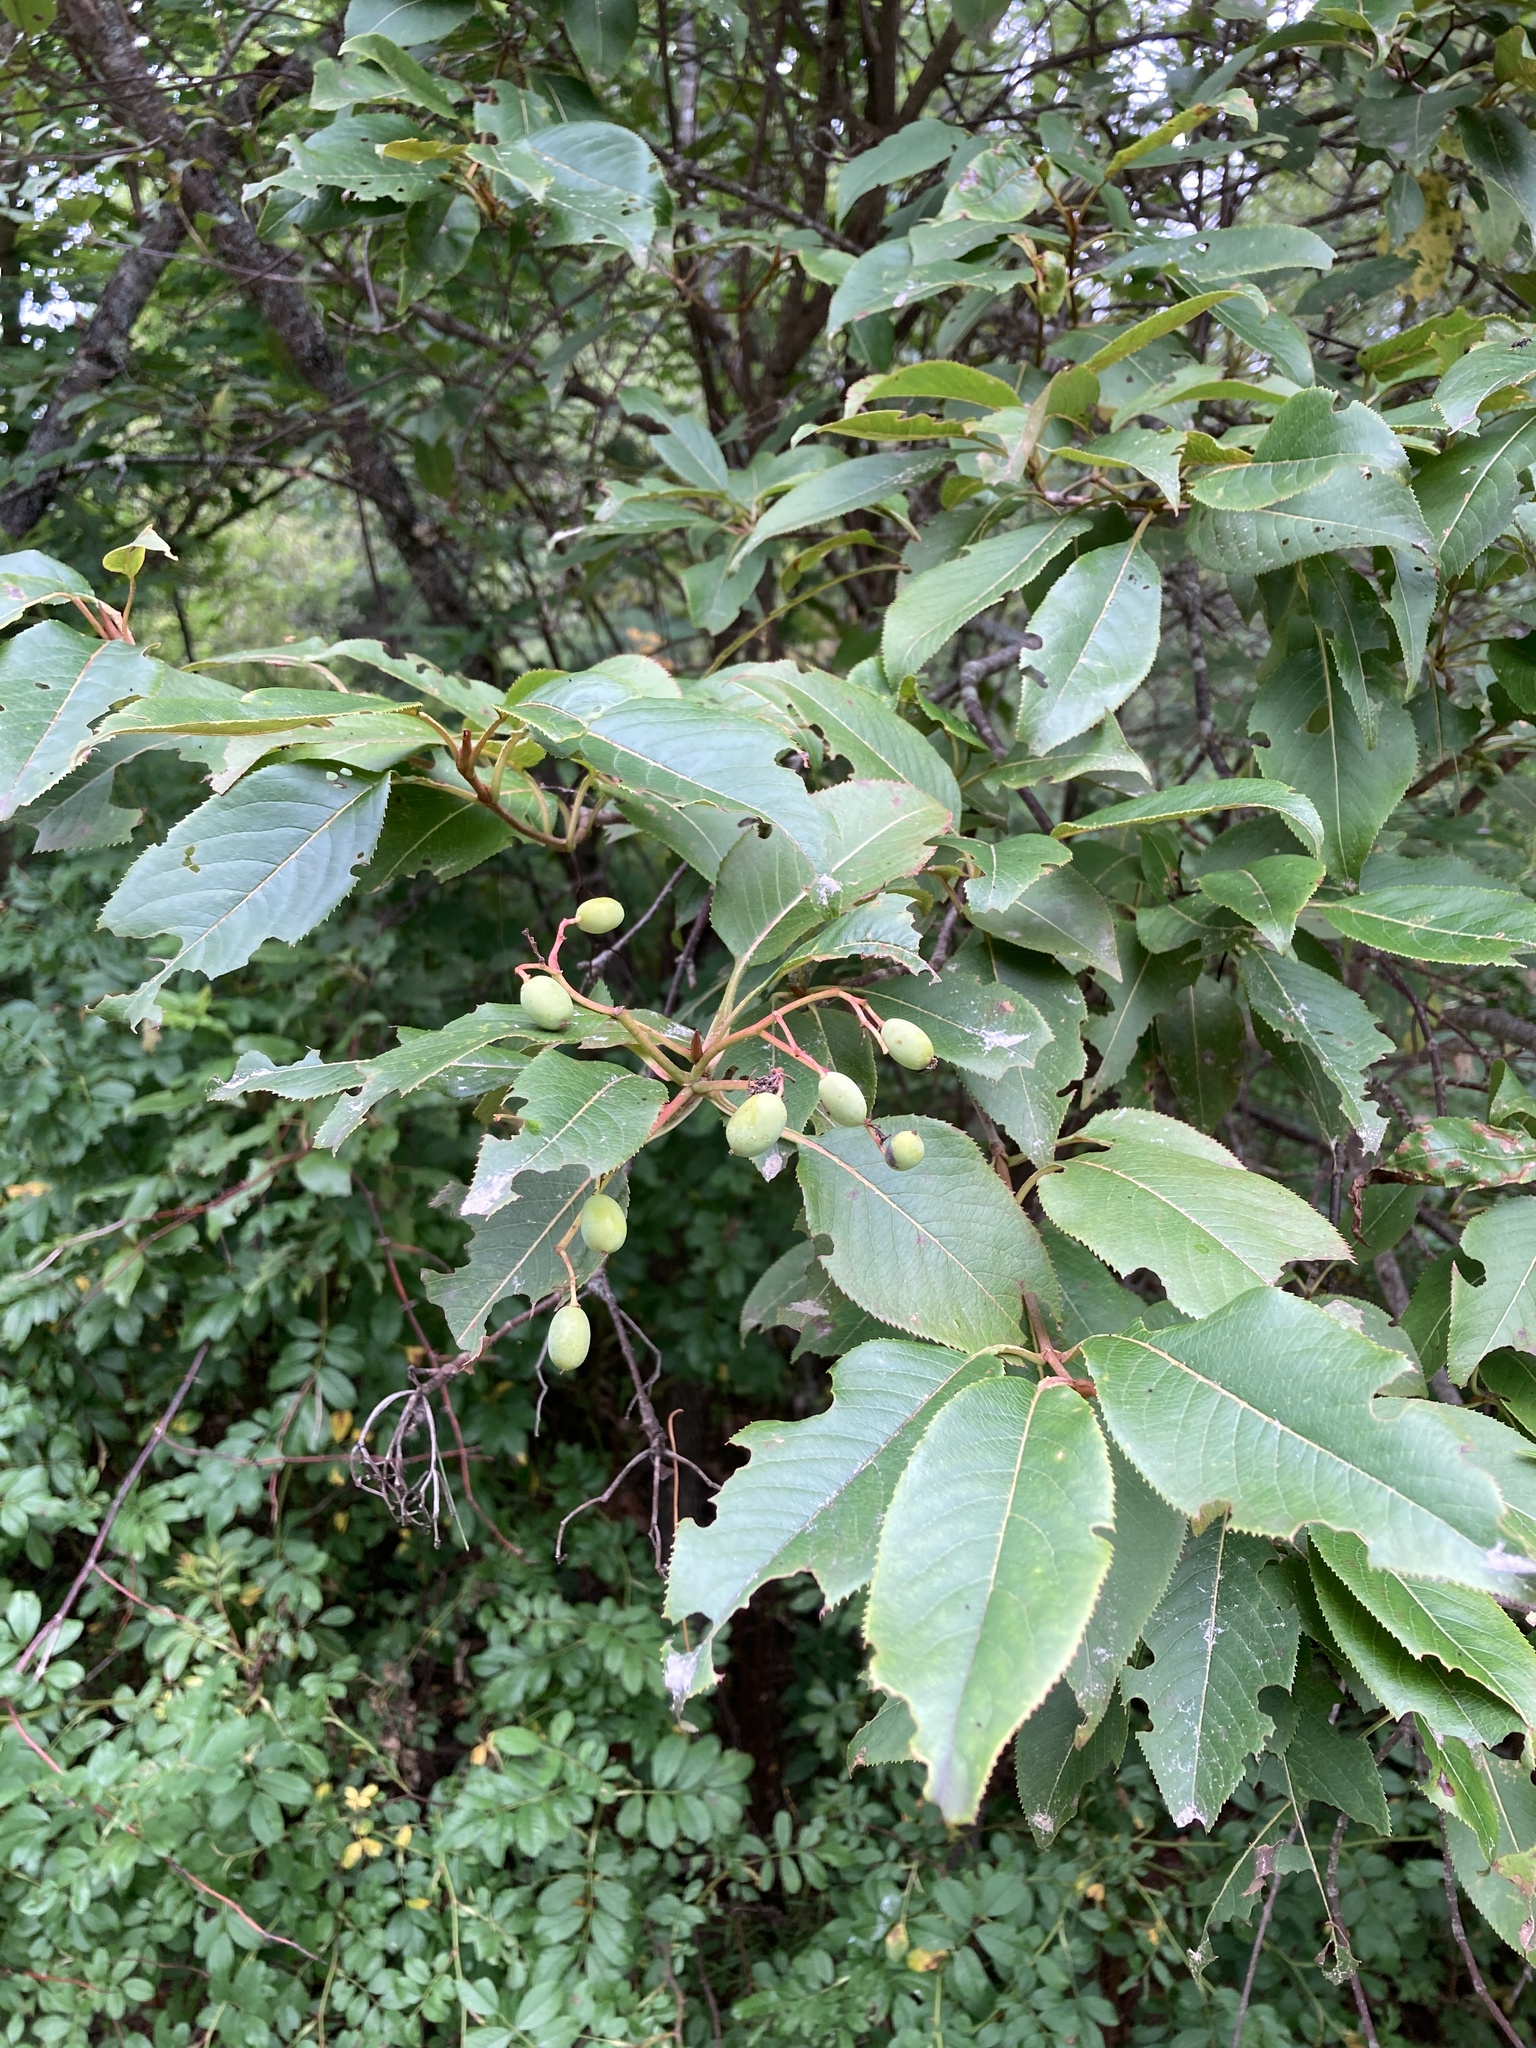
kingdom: Plantae
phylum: Tracheophyta
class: Magnoliopsida
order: Dipsacales
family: Viburnaceae
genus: Viburnum
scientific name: Viburnum lentago
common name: Black haw
